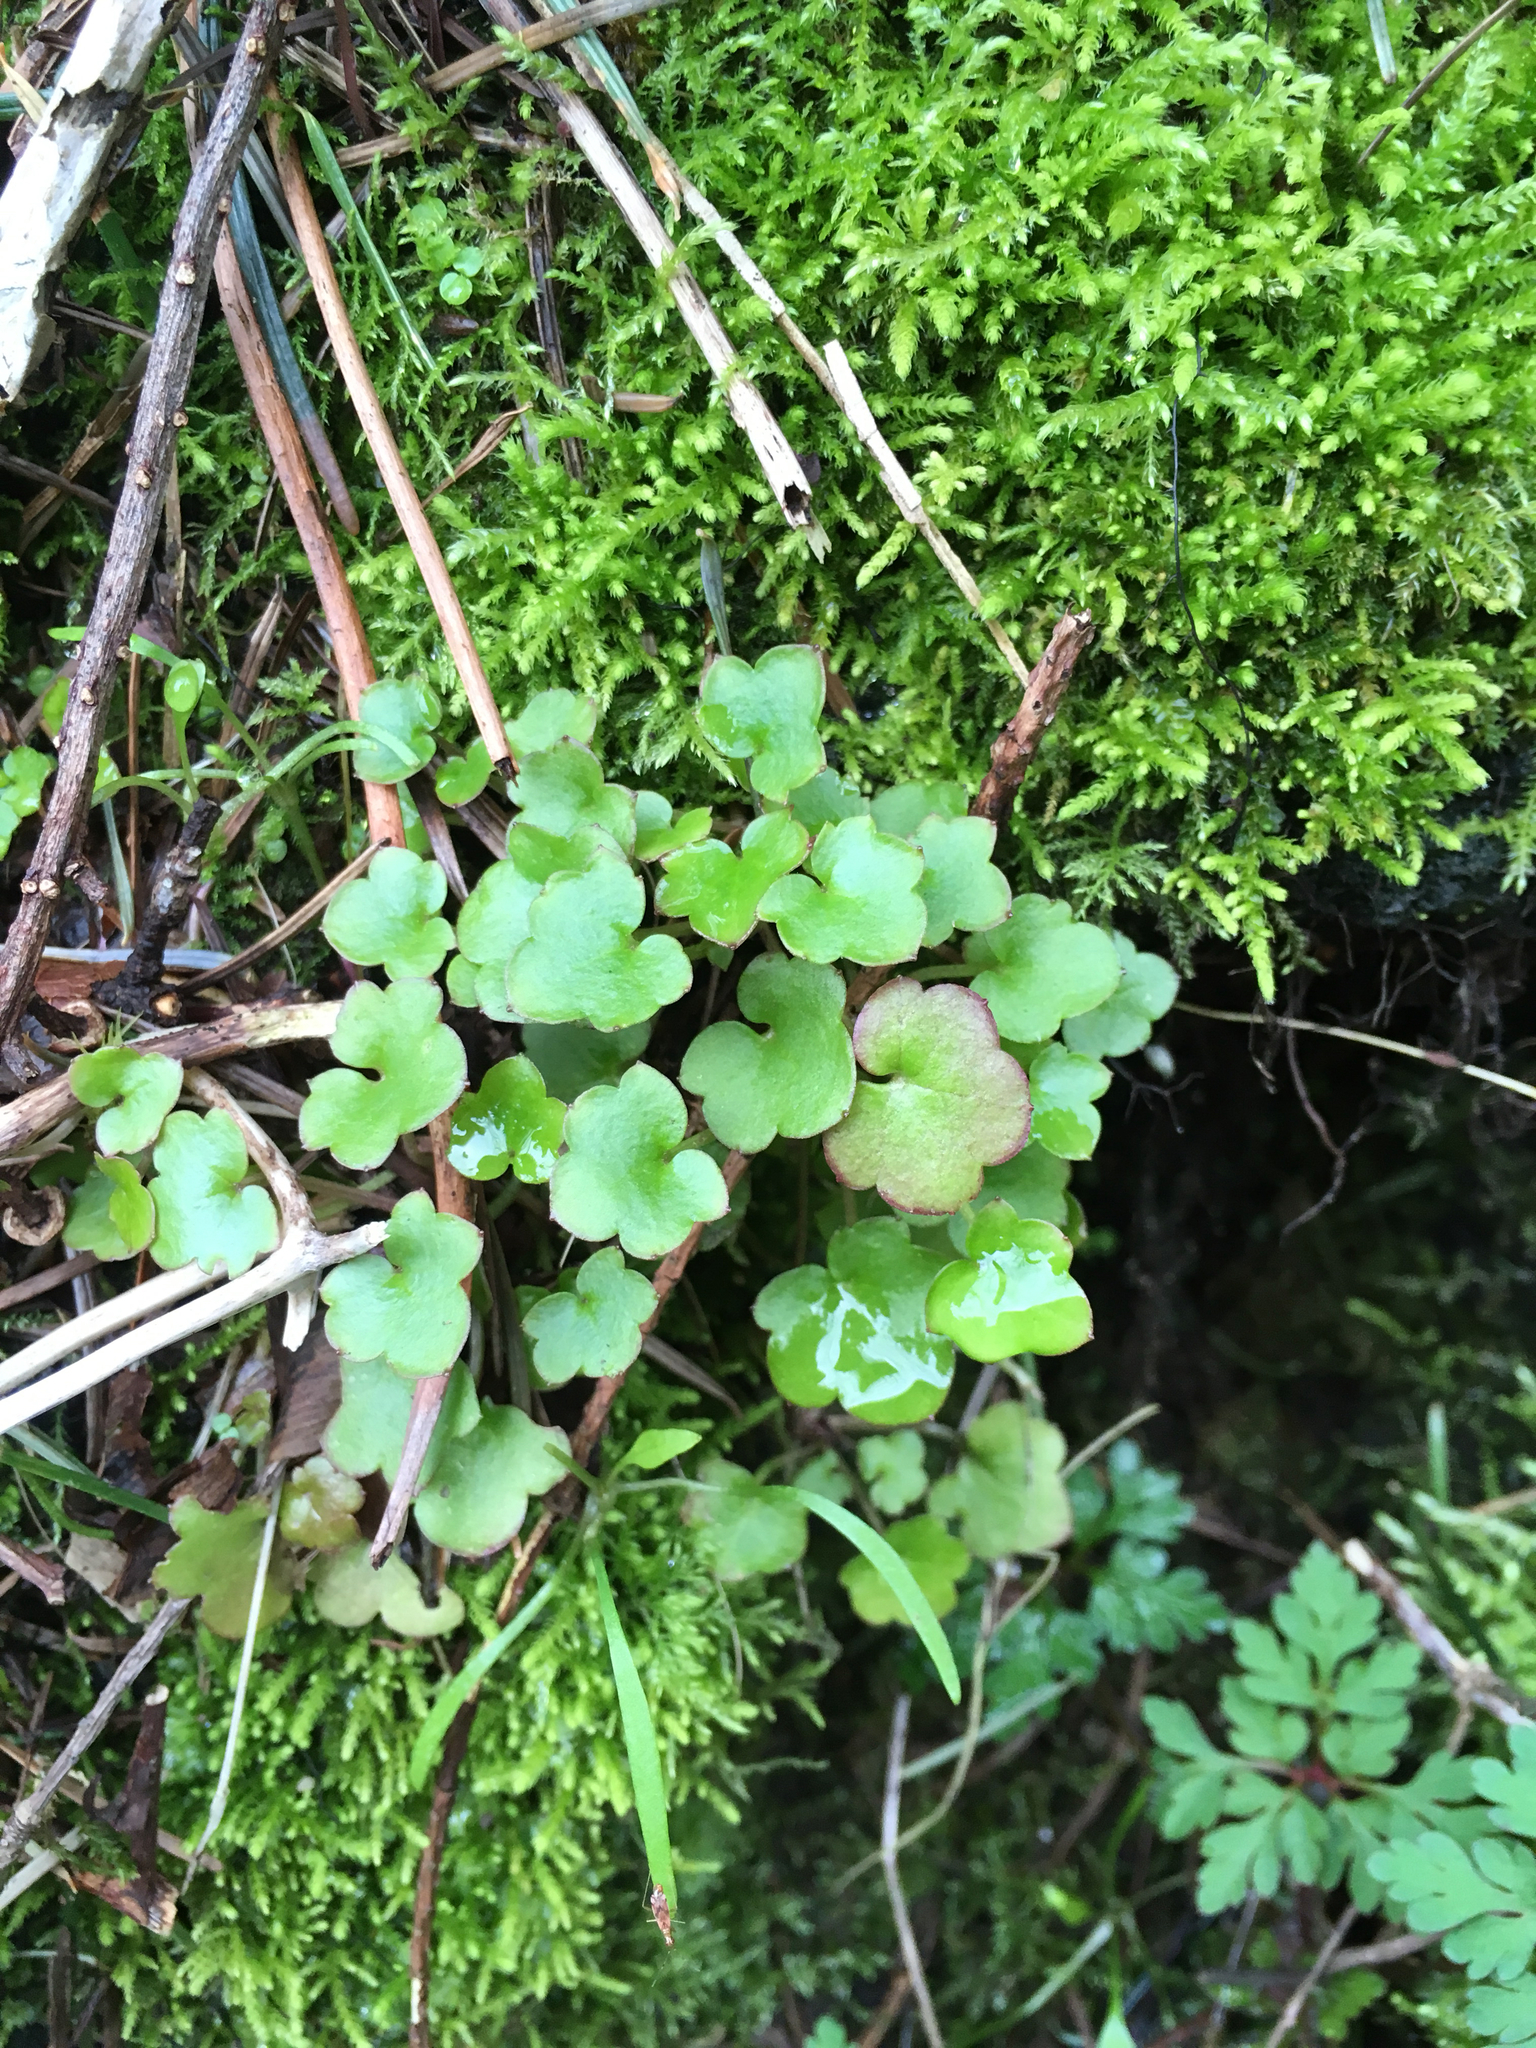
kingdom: Plantae
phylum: Tracheophyta
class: Magnoliopsida
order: Lamiales
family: Plantaginaceae
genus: Cymbalaria
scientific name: Cymbalaria muralis
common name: Ivy-leaved toadflax
